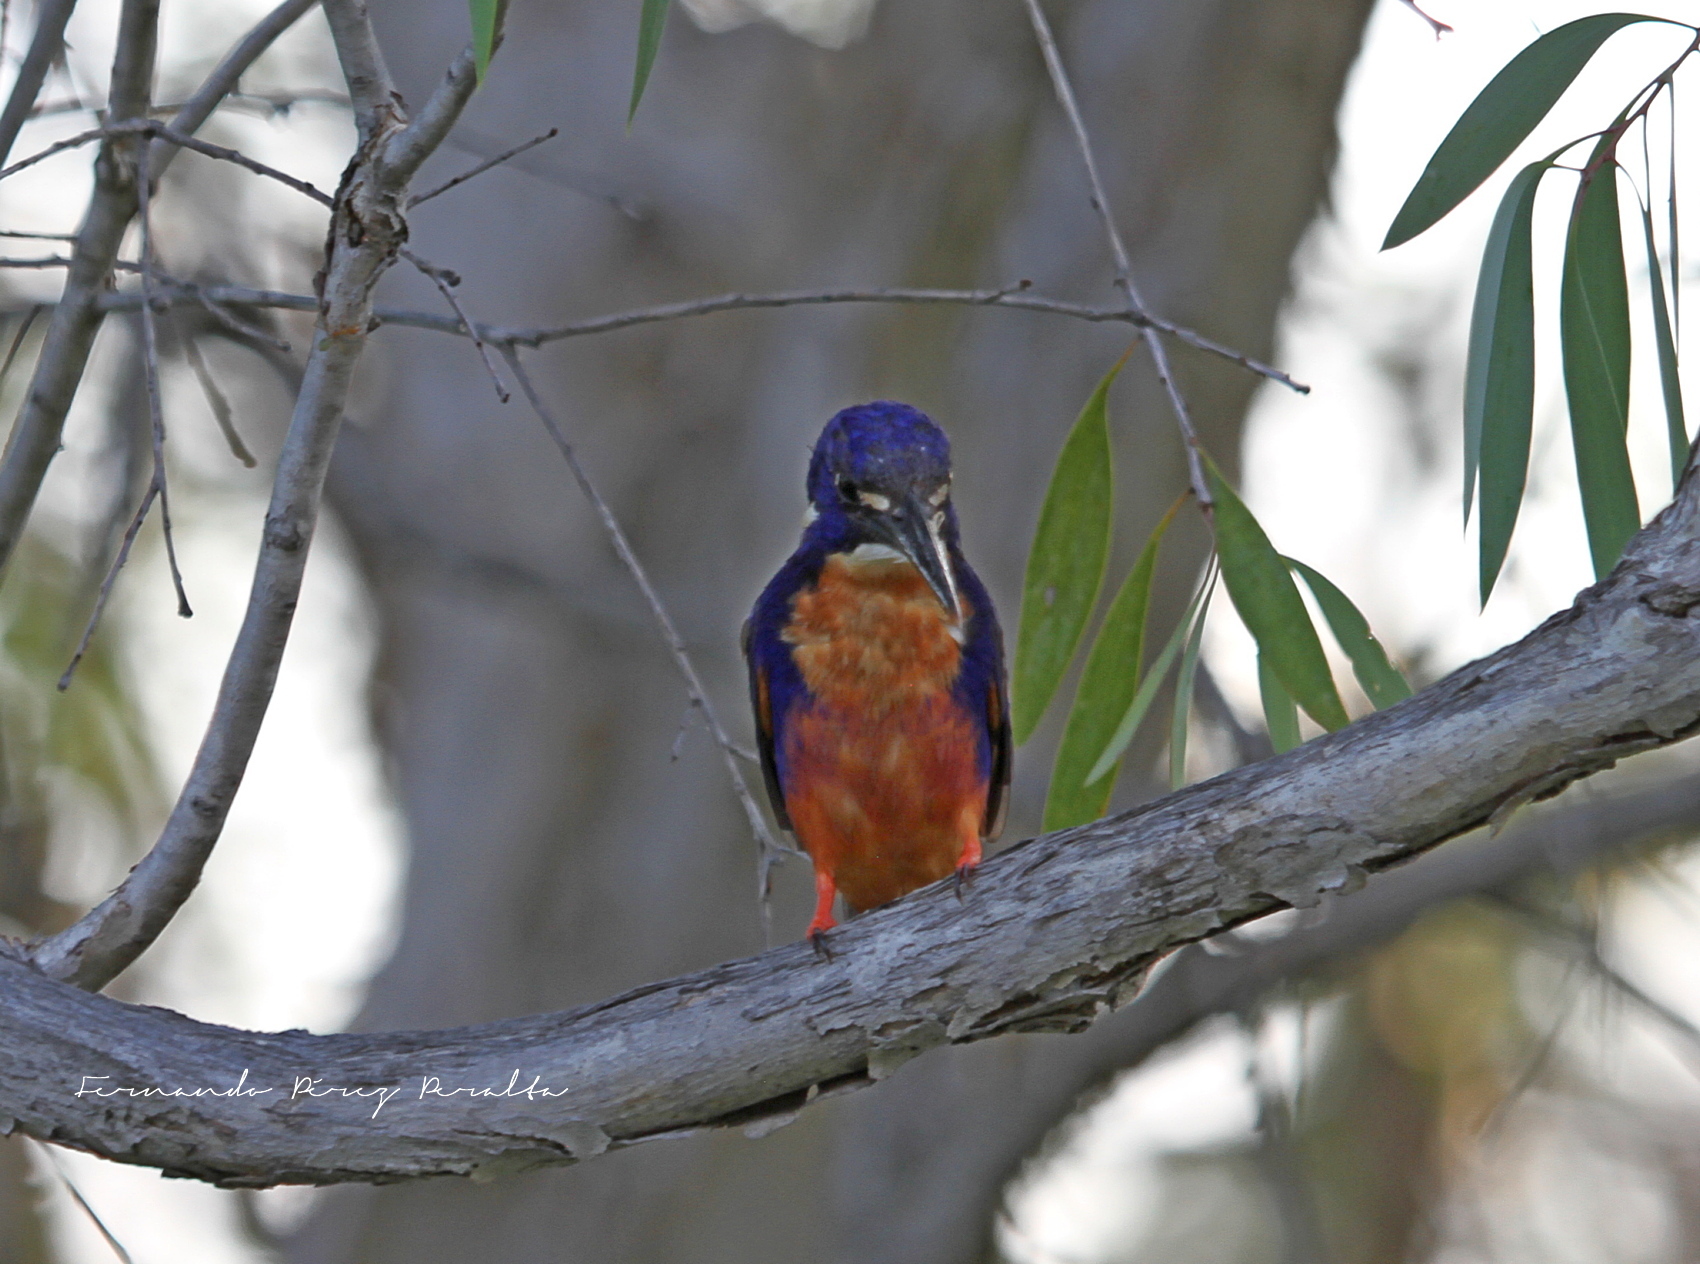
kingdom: Animalia
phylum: Chordata
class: Aves
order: Coraciiformes
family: Alcedinidae
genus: Ceyx
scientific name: Ceyx azureus
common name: Azure kingfisher
